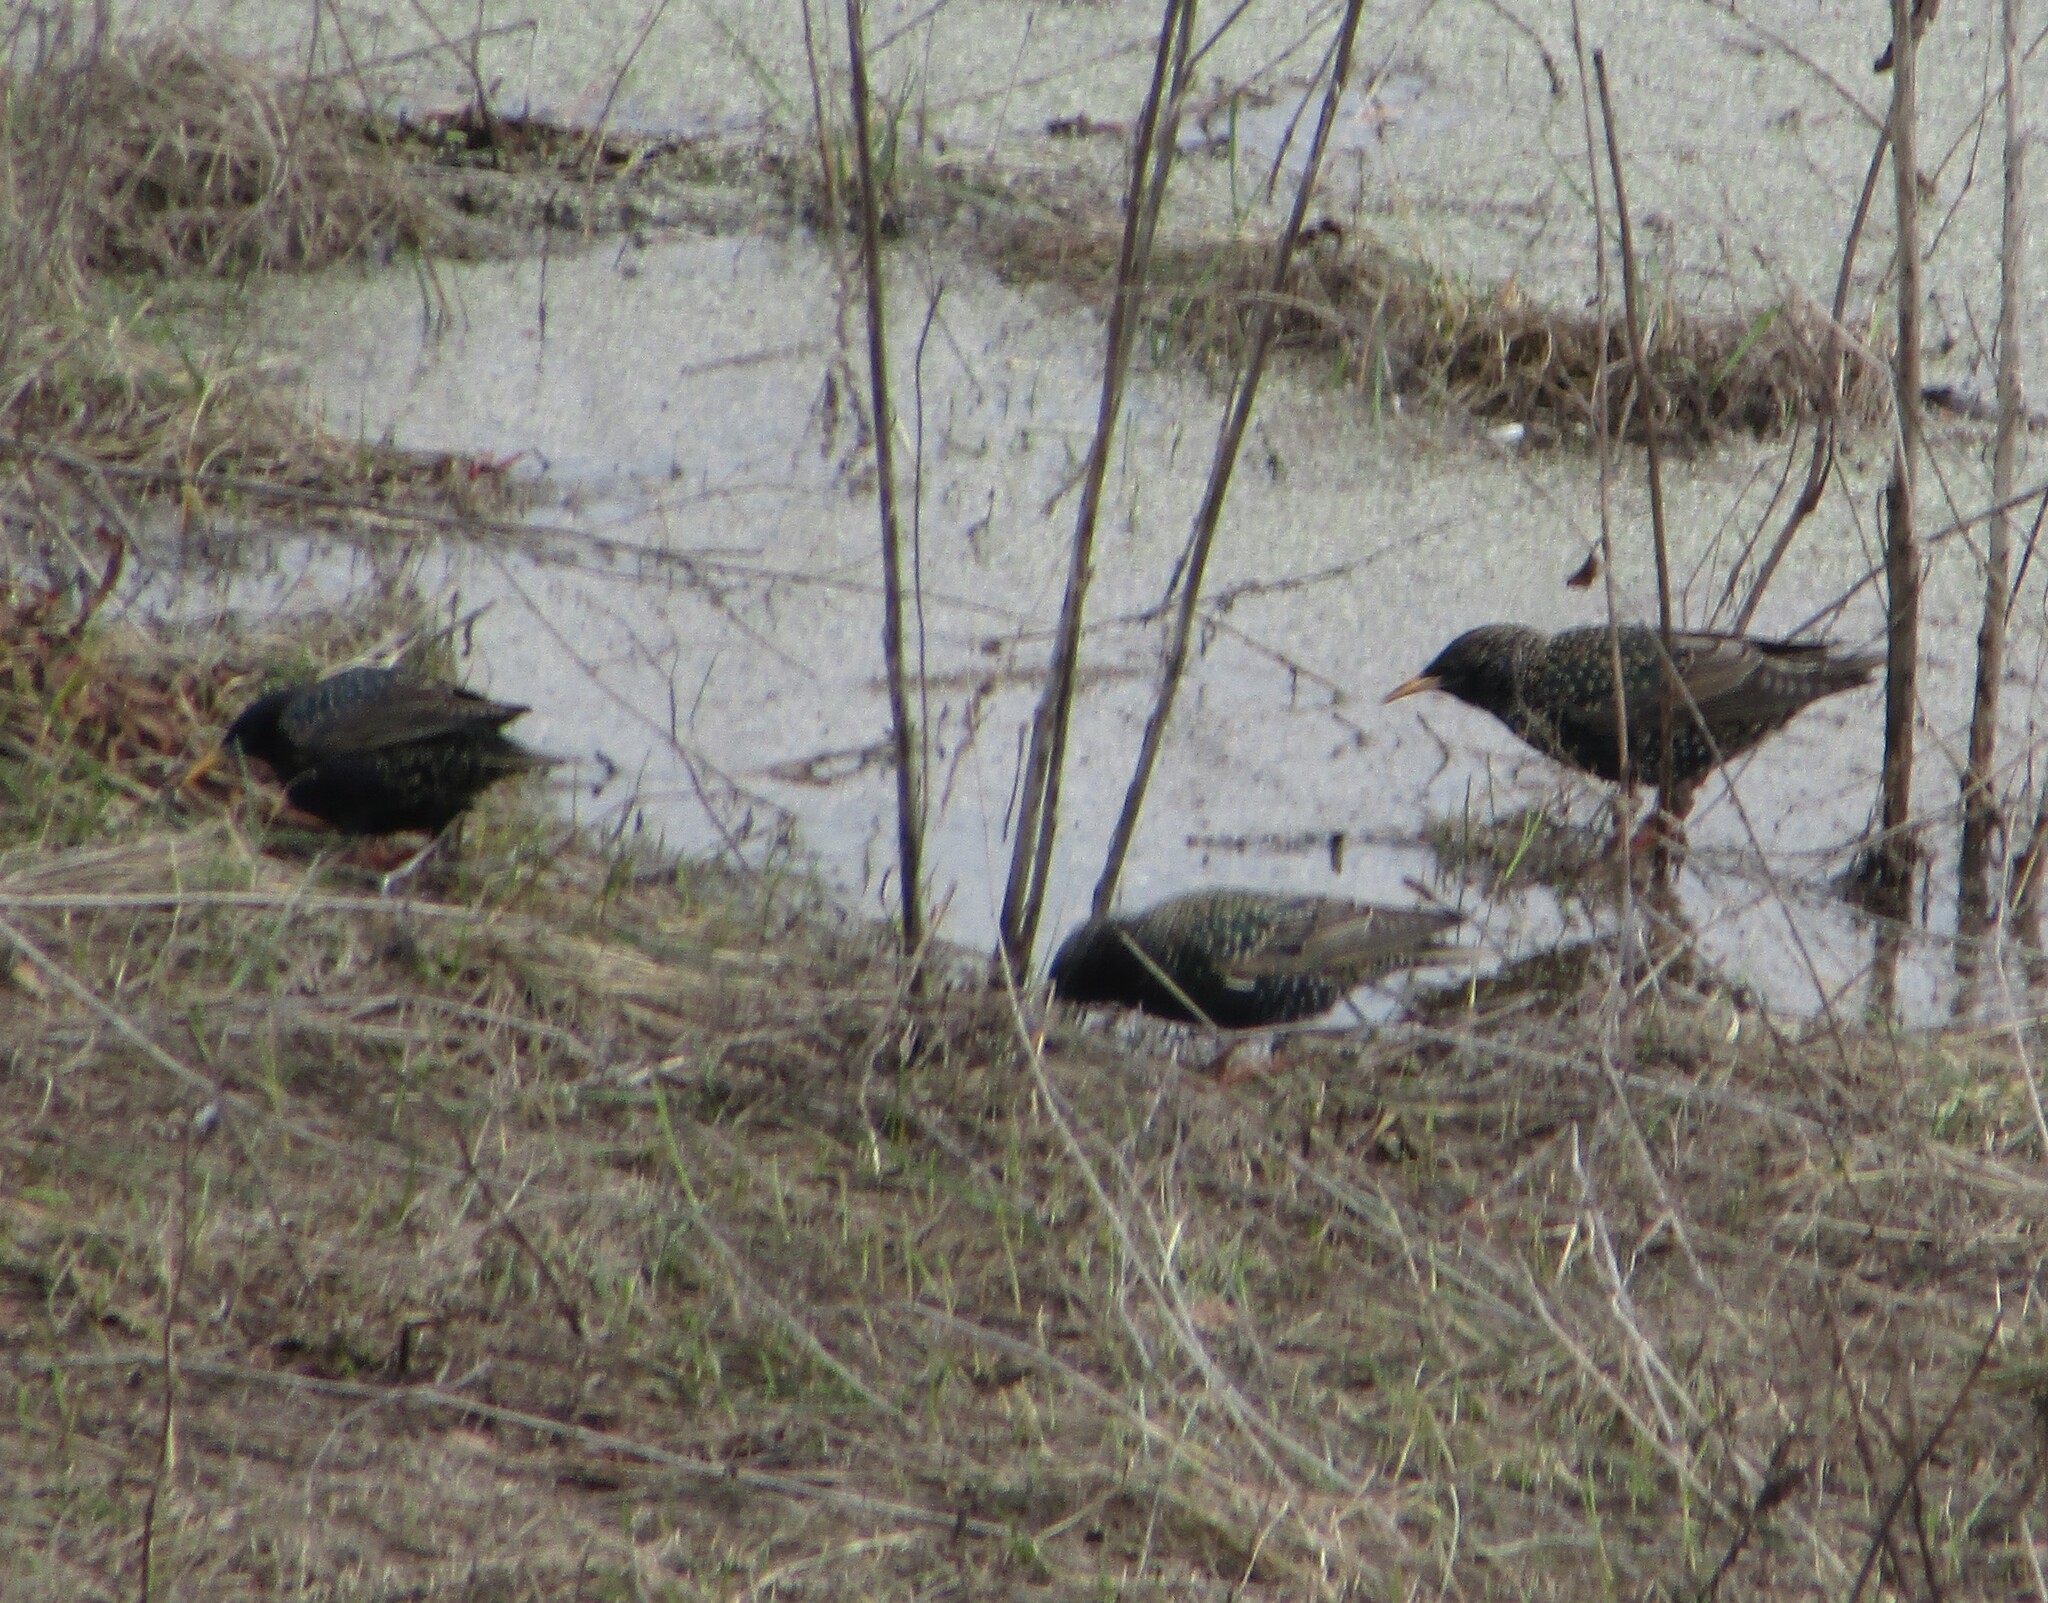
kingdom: Animalia
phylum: Chordata
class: Aves
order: Passeriformes
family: Sturnidae
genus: Sturnus
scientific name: Sturnus vulgaris
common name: Common starling
